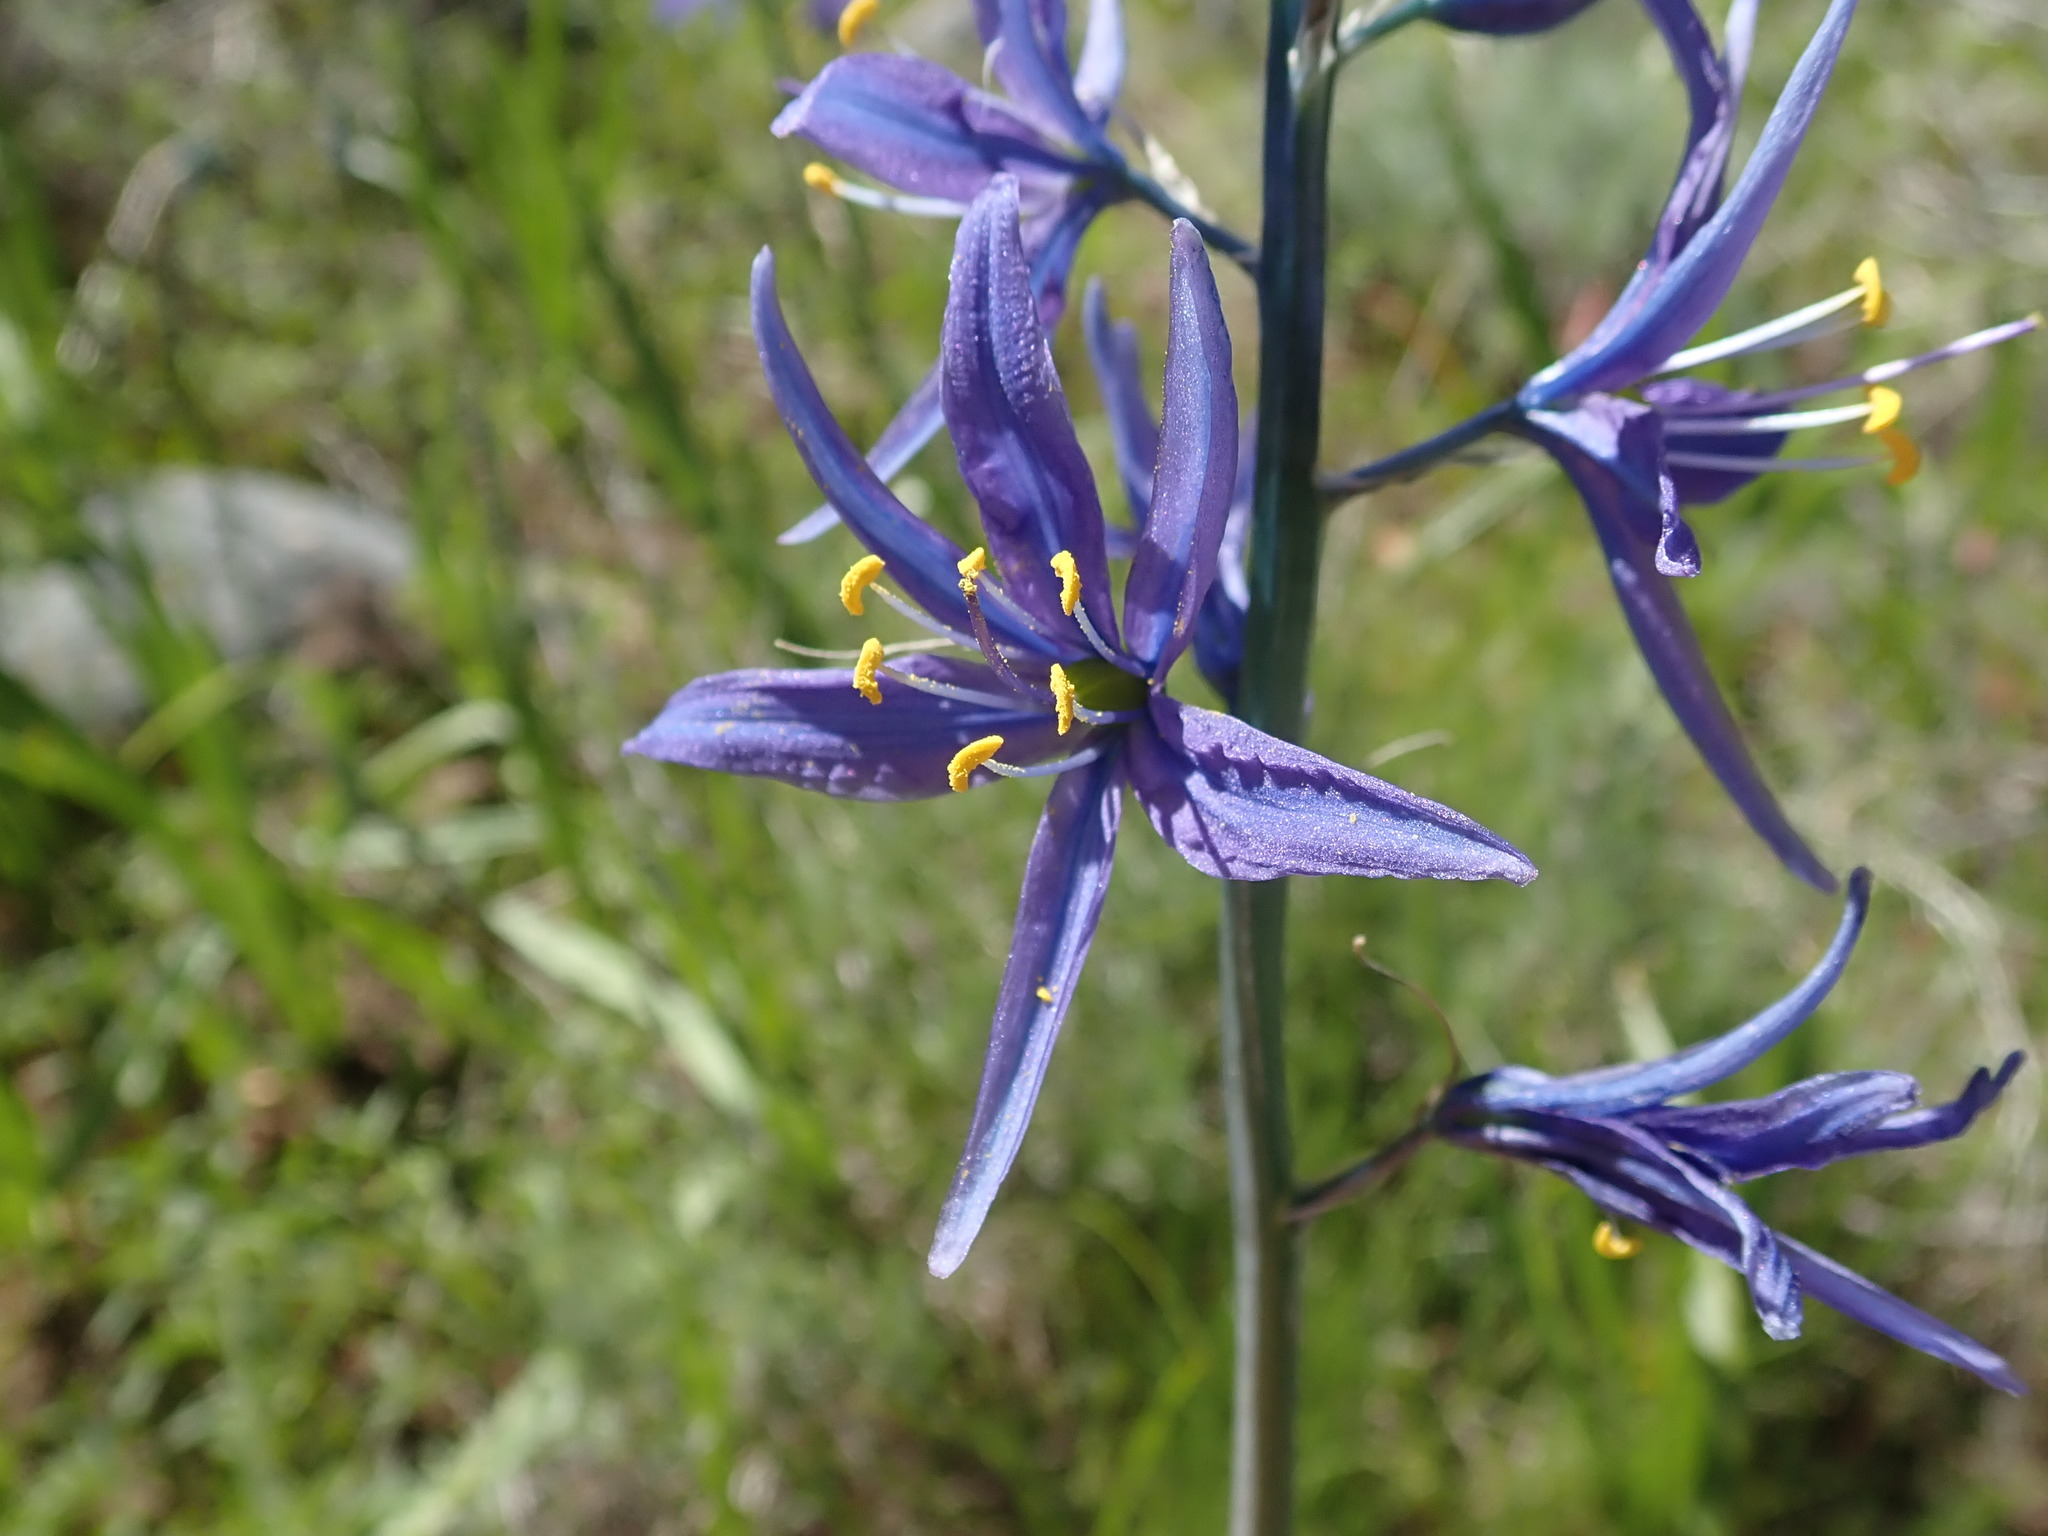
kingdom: Plantae
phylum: Tracheophyta
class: Liliopsida
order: Asparagales
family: Asparagaceae
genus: Camassia
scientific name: Camassia quamash
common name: Common camas
